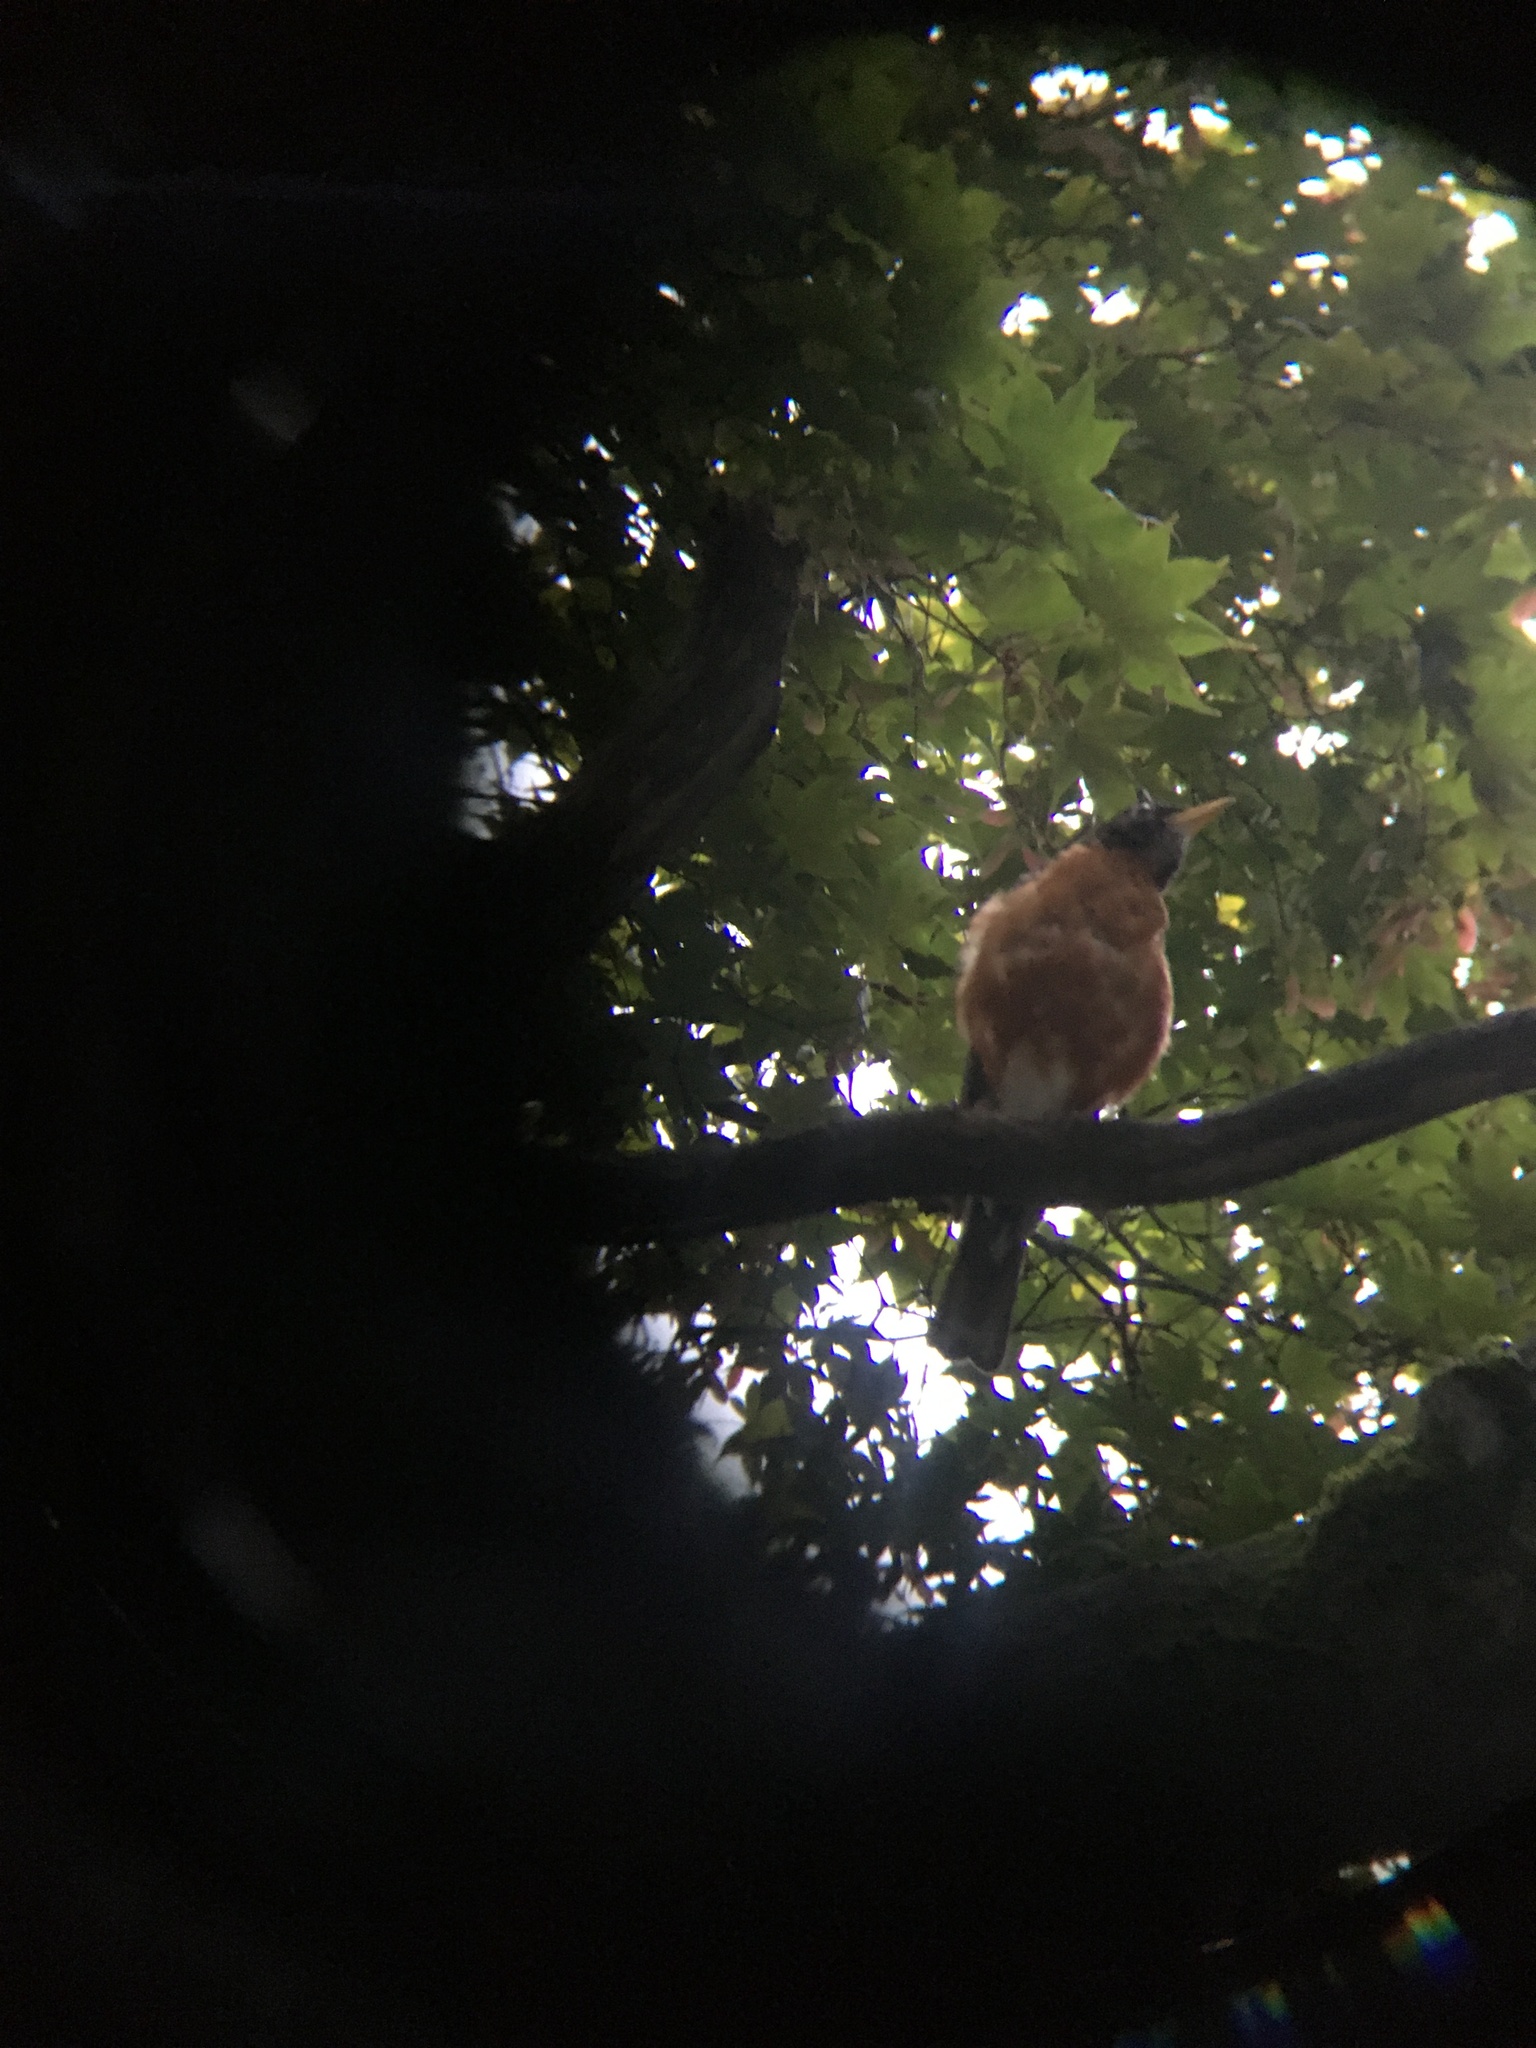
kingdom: Animalia
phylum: Chordata
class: Aves
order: Passeriformes
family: Turdidae
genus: Turdus
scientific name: Turdus migratorius
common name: American robin
